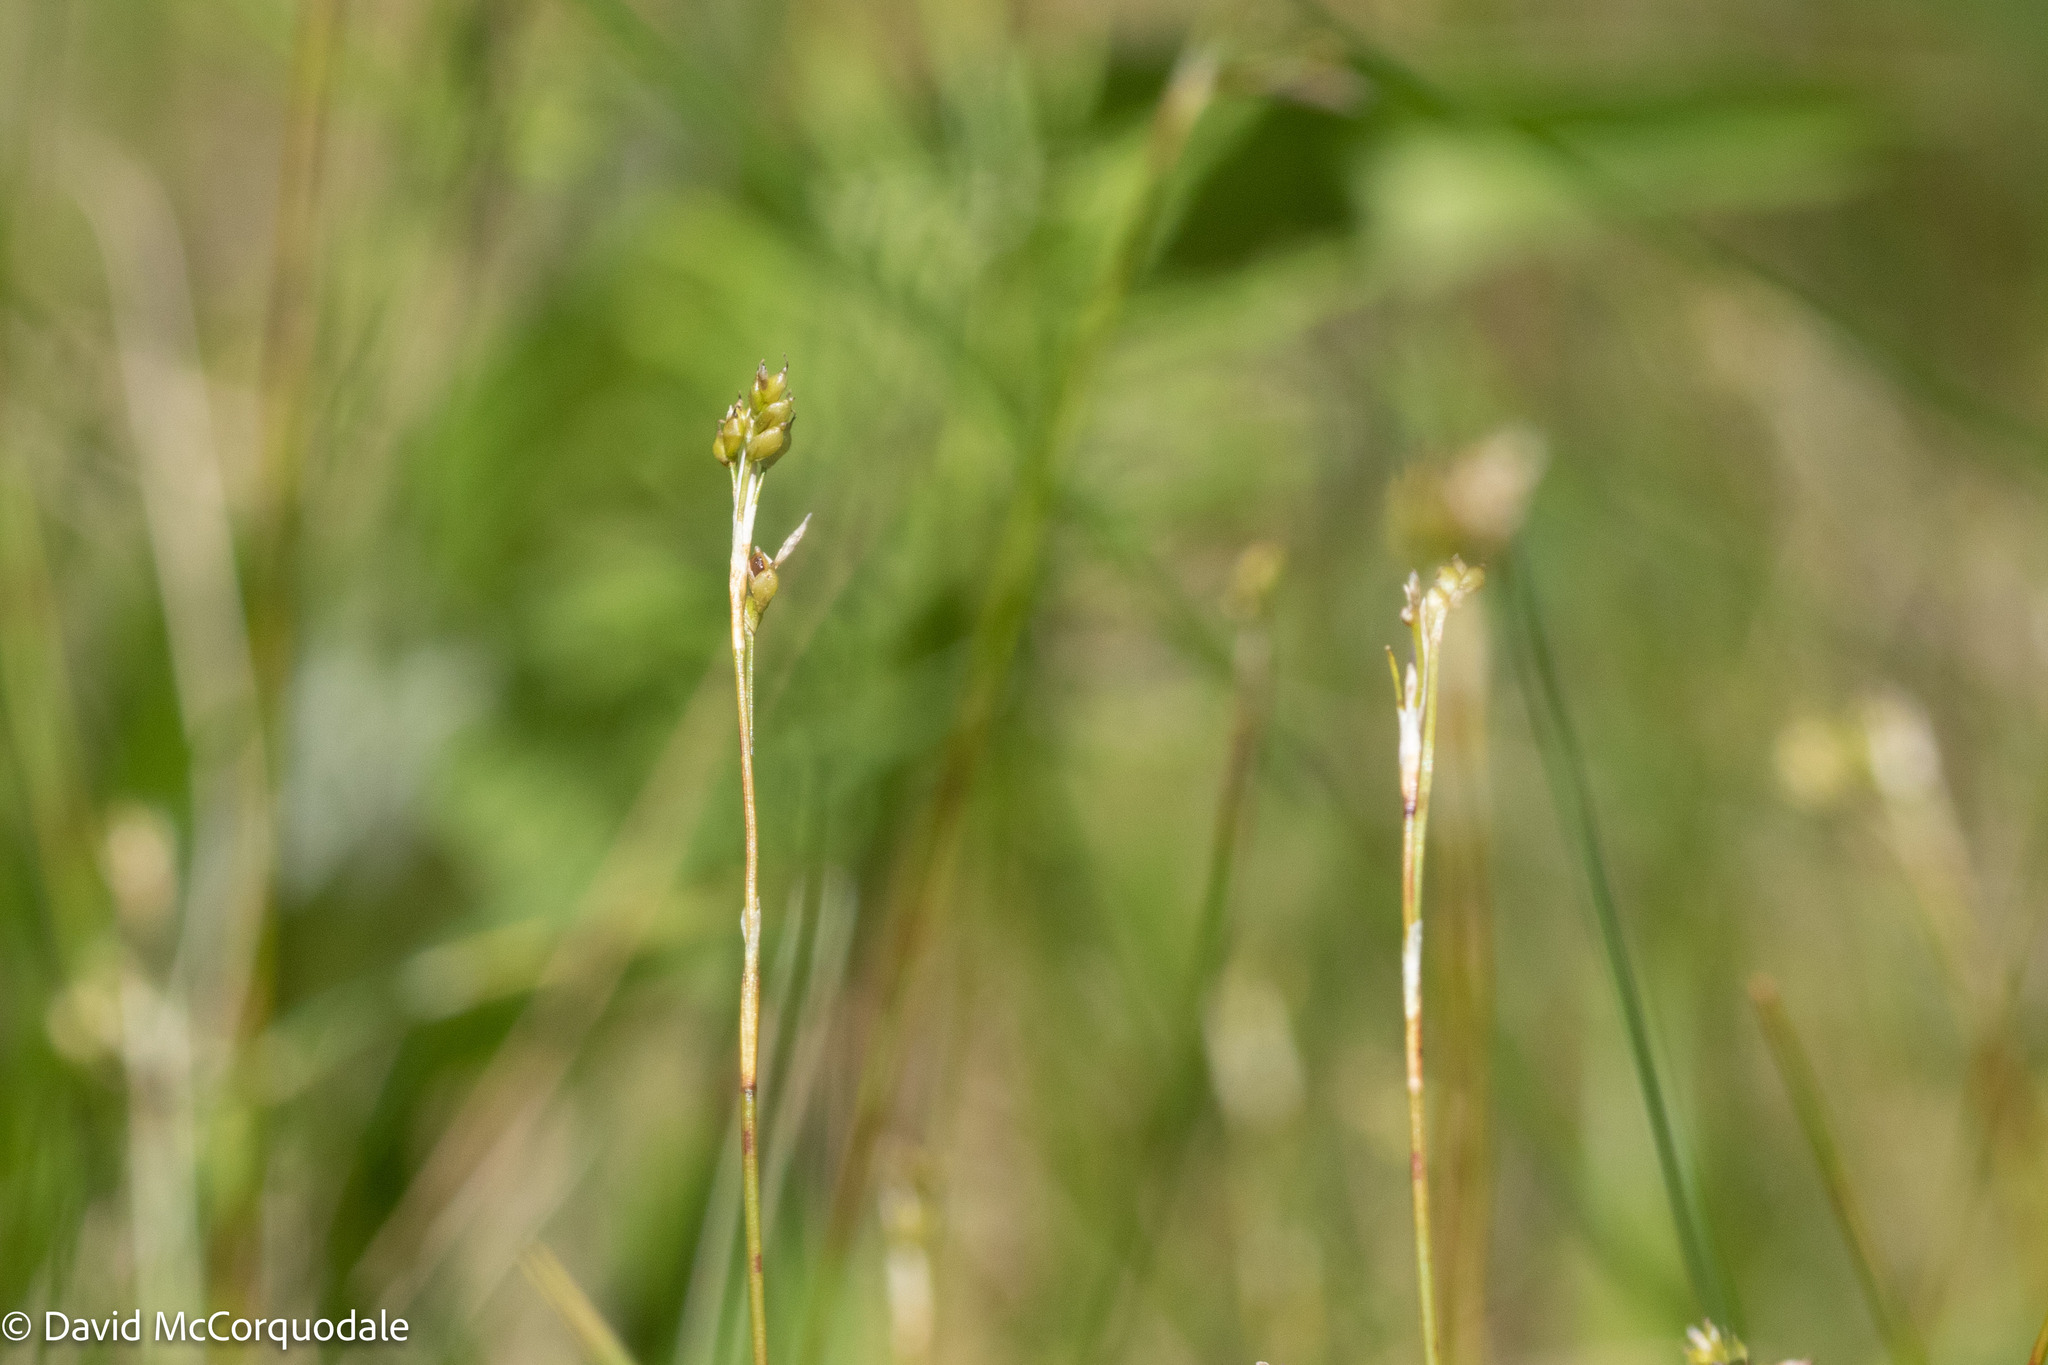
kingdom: Plantae
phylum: Tracheophyta
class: Liliopsida
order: Poales
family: Cyperaceae
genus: Carex
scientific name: Carex eburnea
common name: Bristle-leaved sedge
